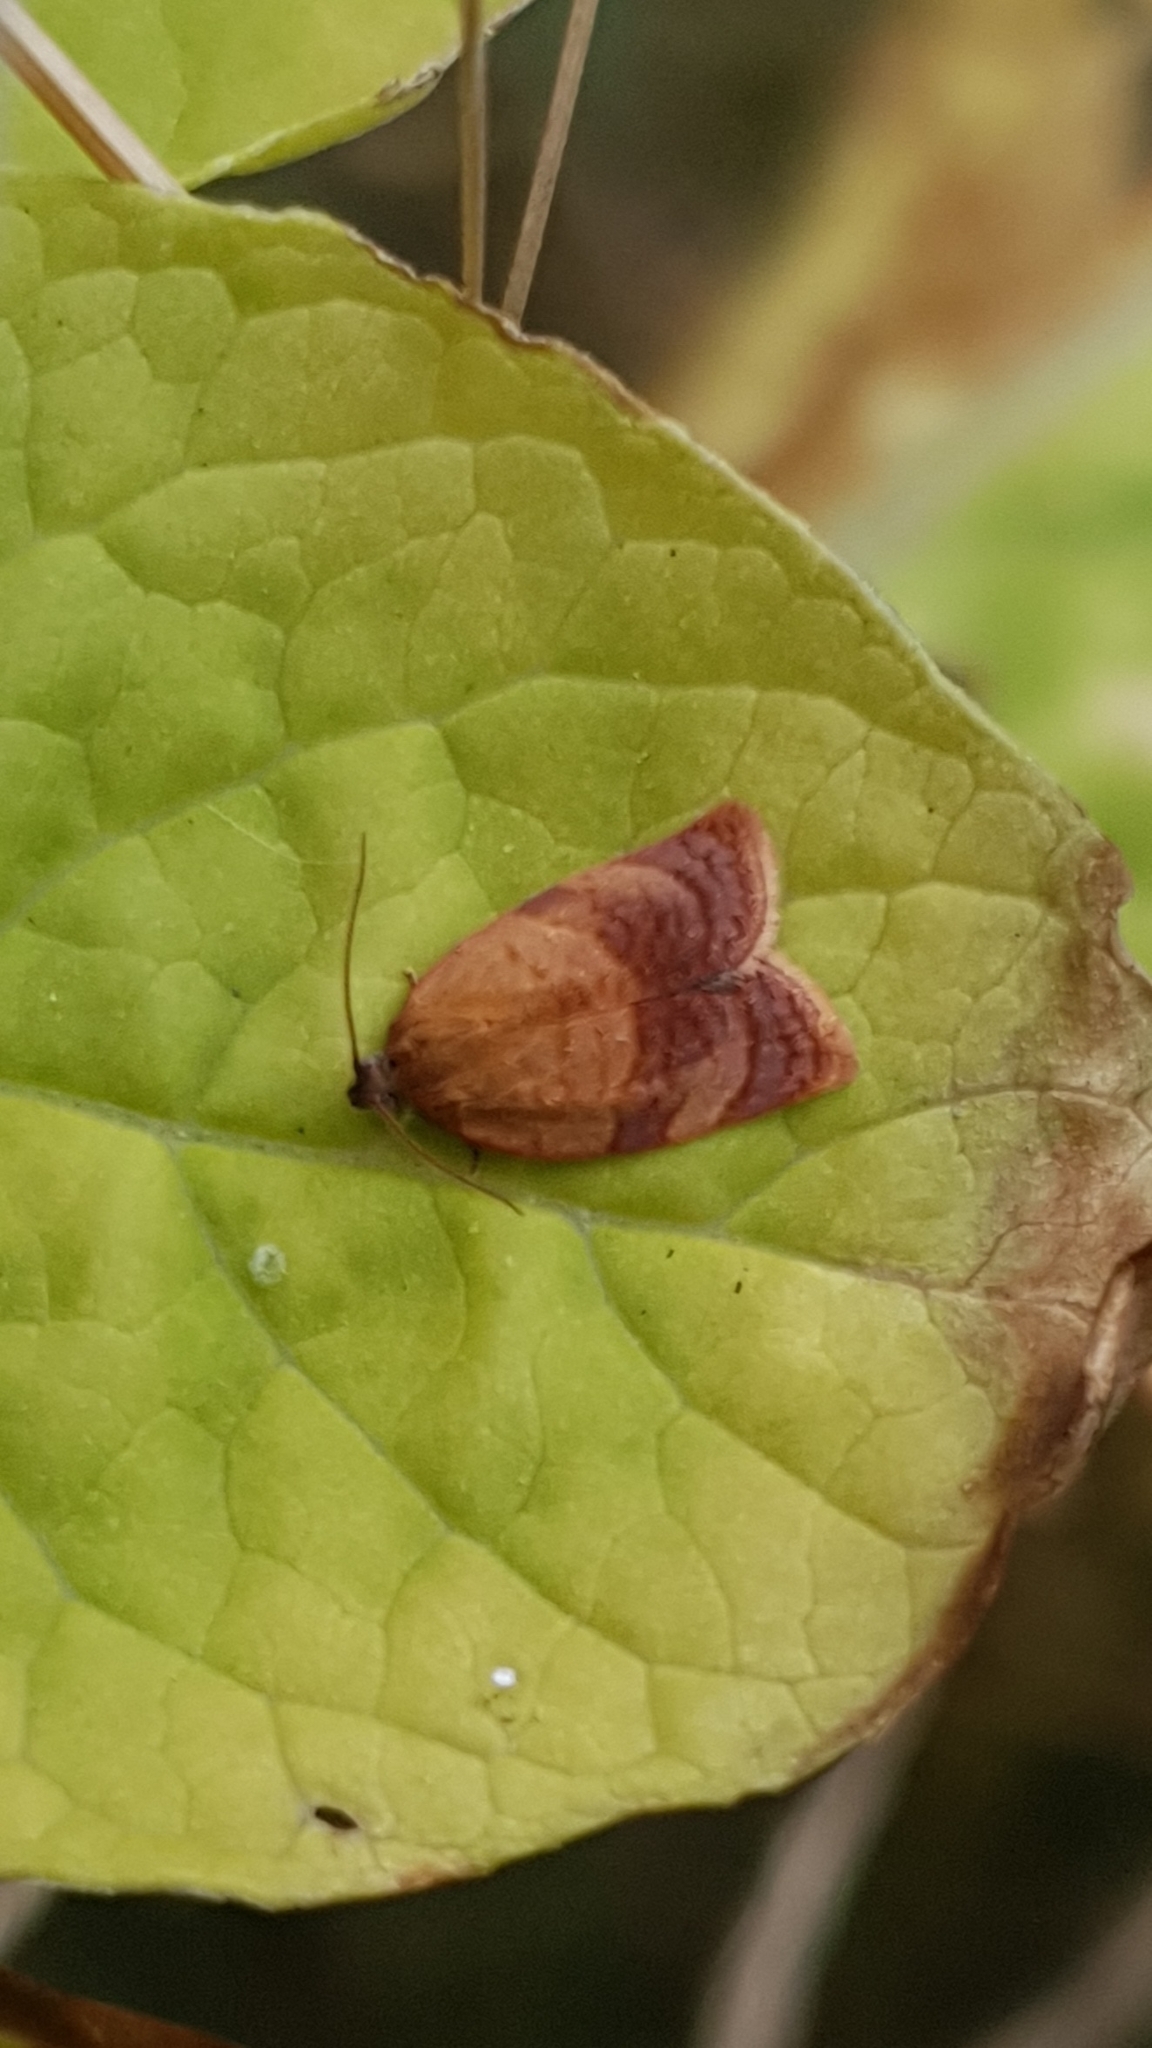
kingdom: Animalia
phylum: Arthropoda
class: Insecta
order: Lepidoptera
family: Tortricidae
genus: Cacoecimorpha
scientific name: Cacoecimorpha pronubana
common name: Carnation tortrix
